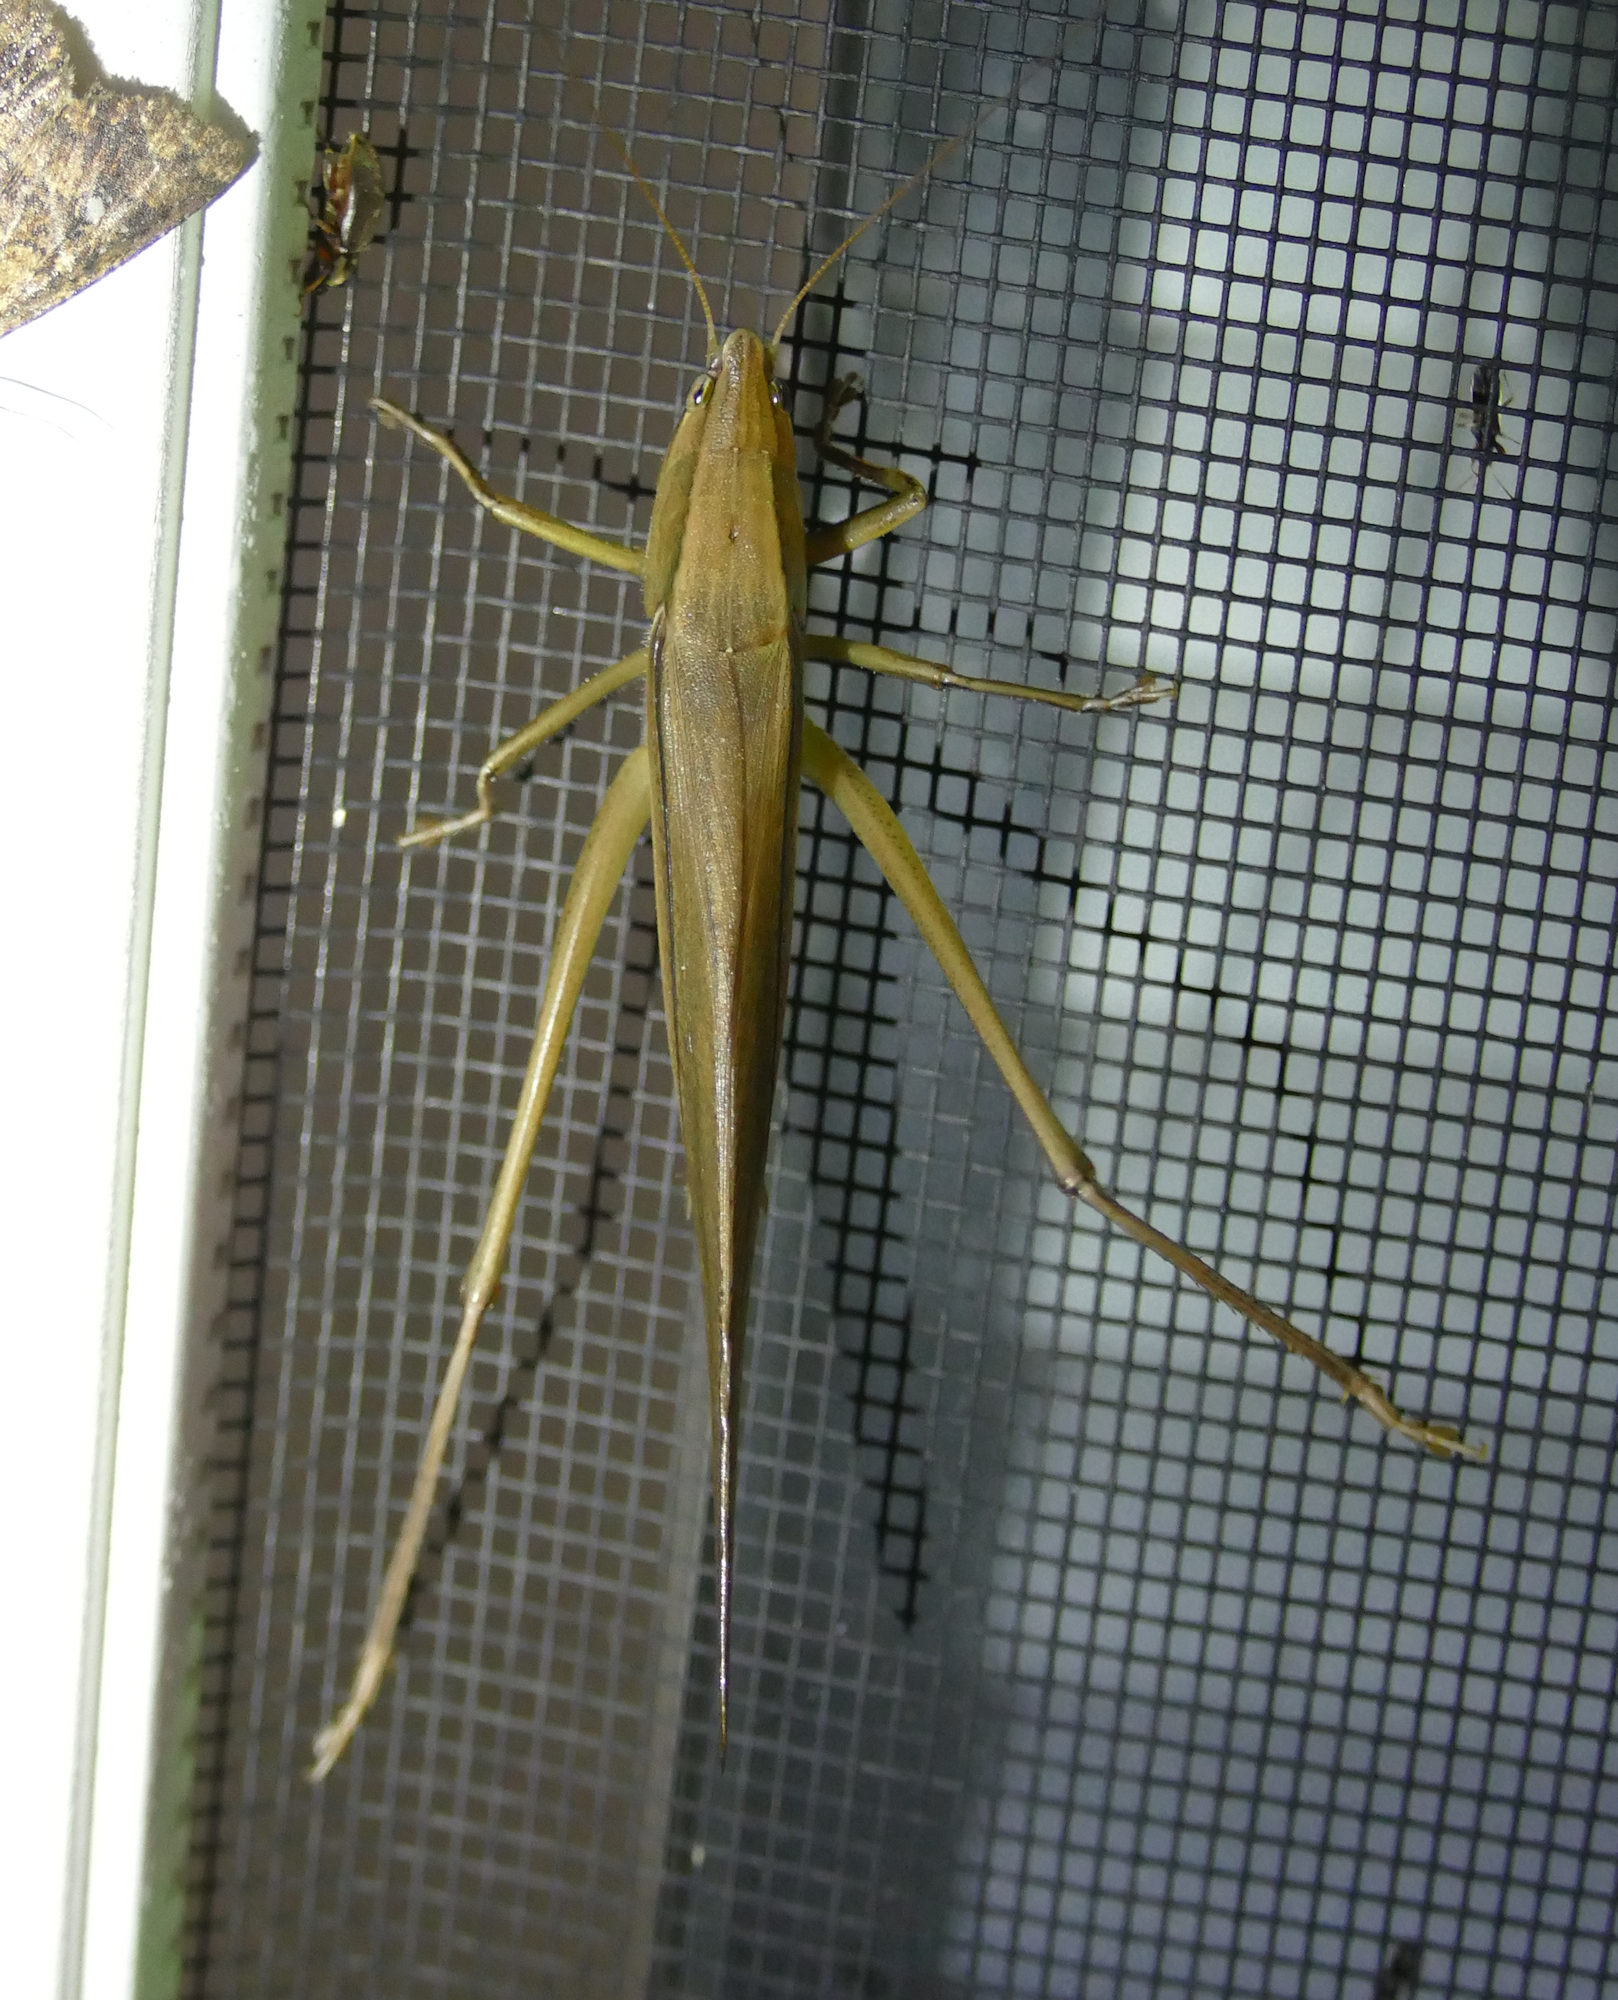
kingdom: Animalia
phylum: Arthropoda
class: Insecta
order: Orthoptera
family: Tettigoniidae
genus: Neoconocephalus
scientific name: Neoconocephalus triops
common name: Broad-tipped conehead
